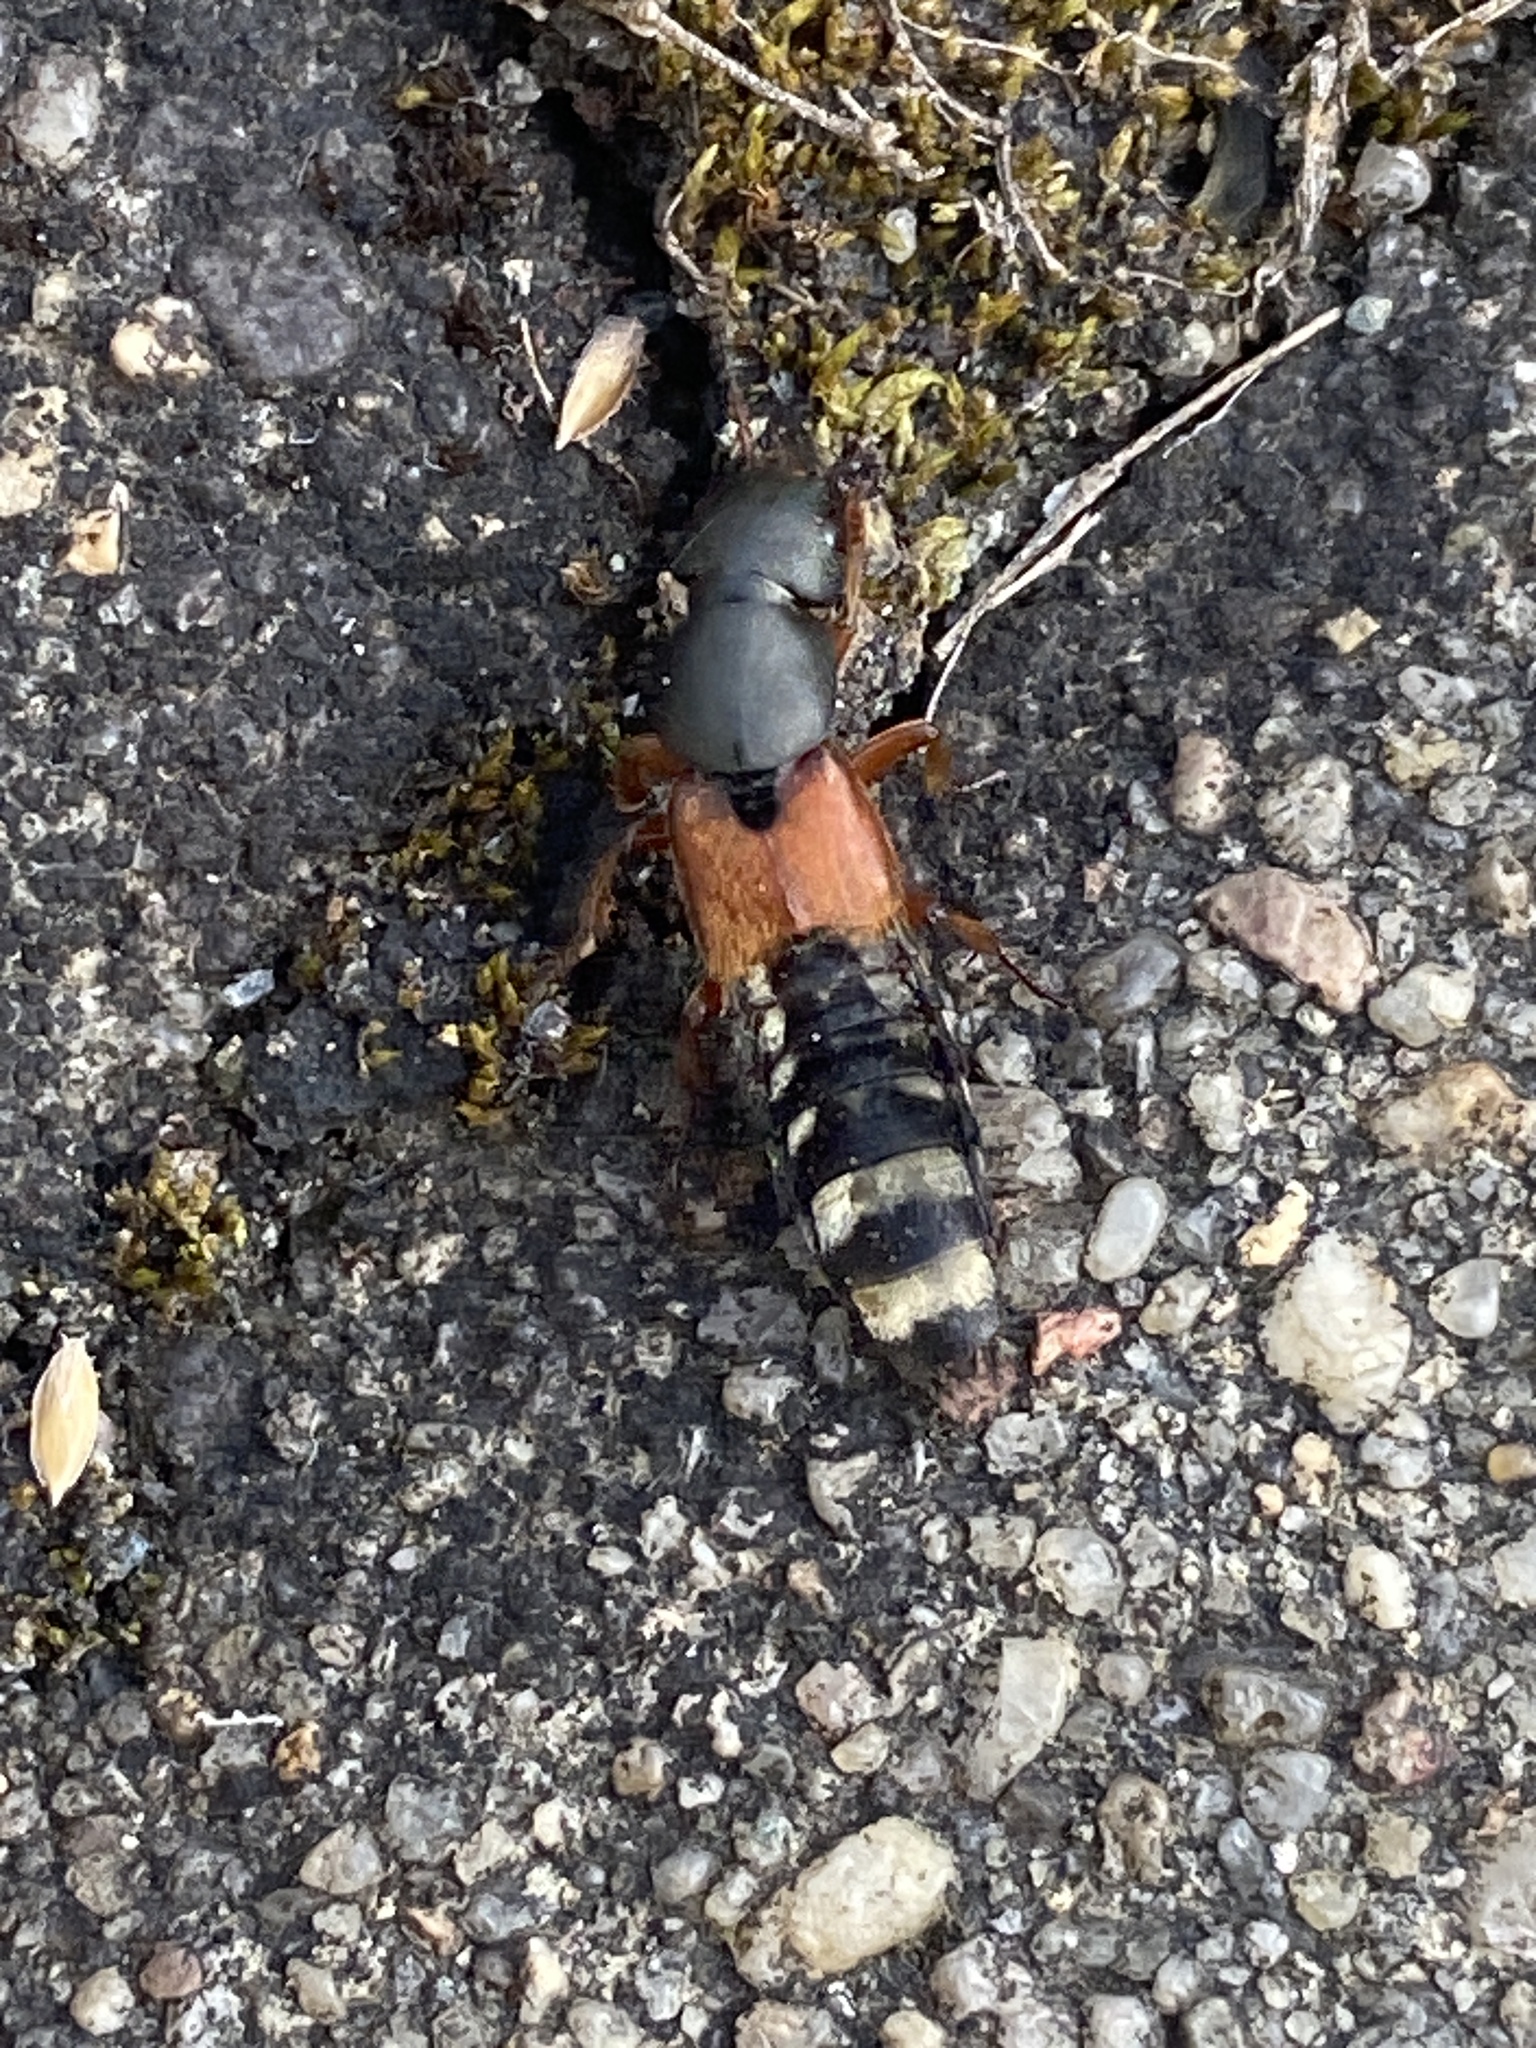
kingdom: Animalia
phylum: Arthropoda
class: Insecta
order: Coleoptera
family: Staphylinidae
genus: Platydracus
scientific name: Platydracus stercorarius
